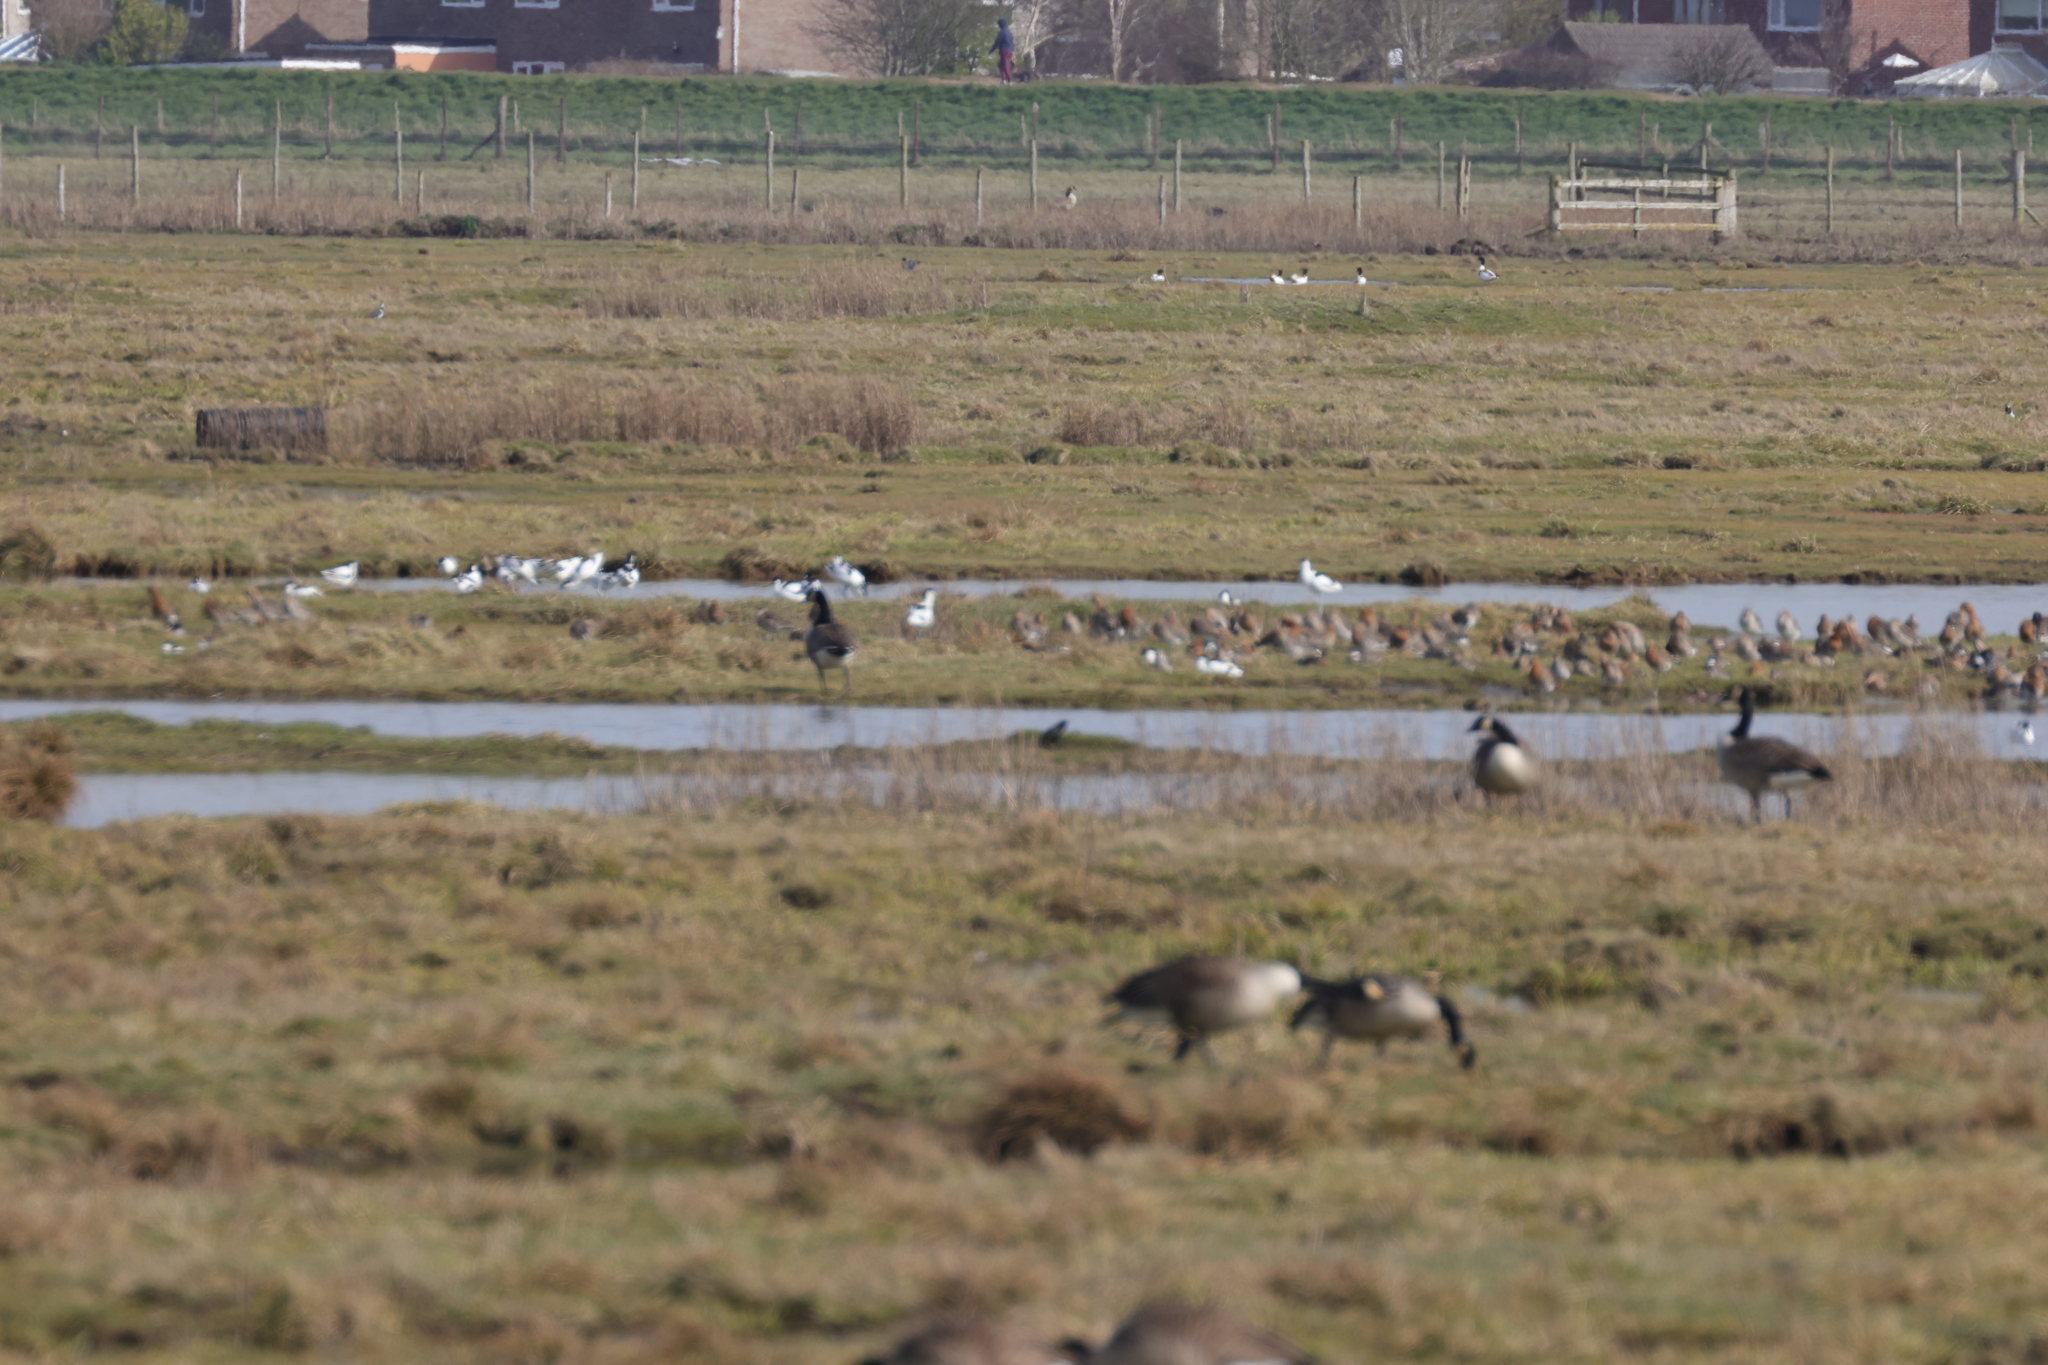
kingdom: Animalia
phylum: Chordata
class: Aves
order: Charadriiformes
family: Scolopacidae
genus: Limosa
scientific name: Limosa limosa
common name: Black-tailed godwit
